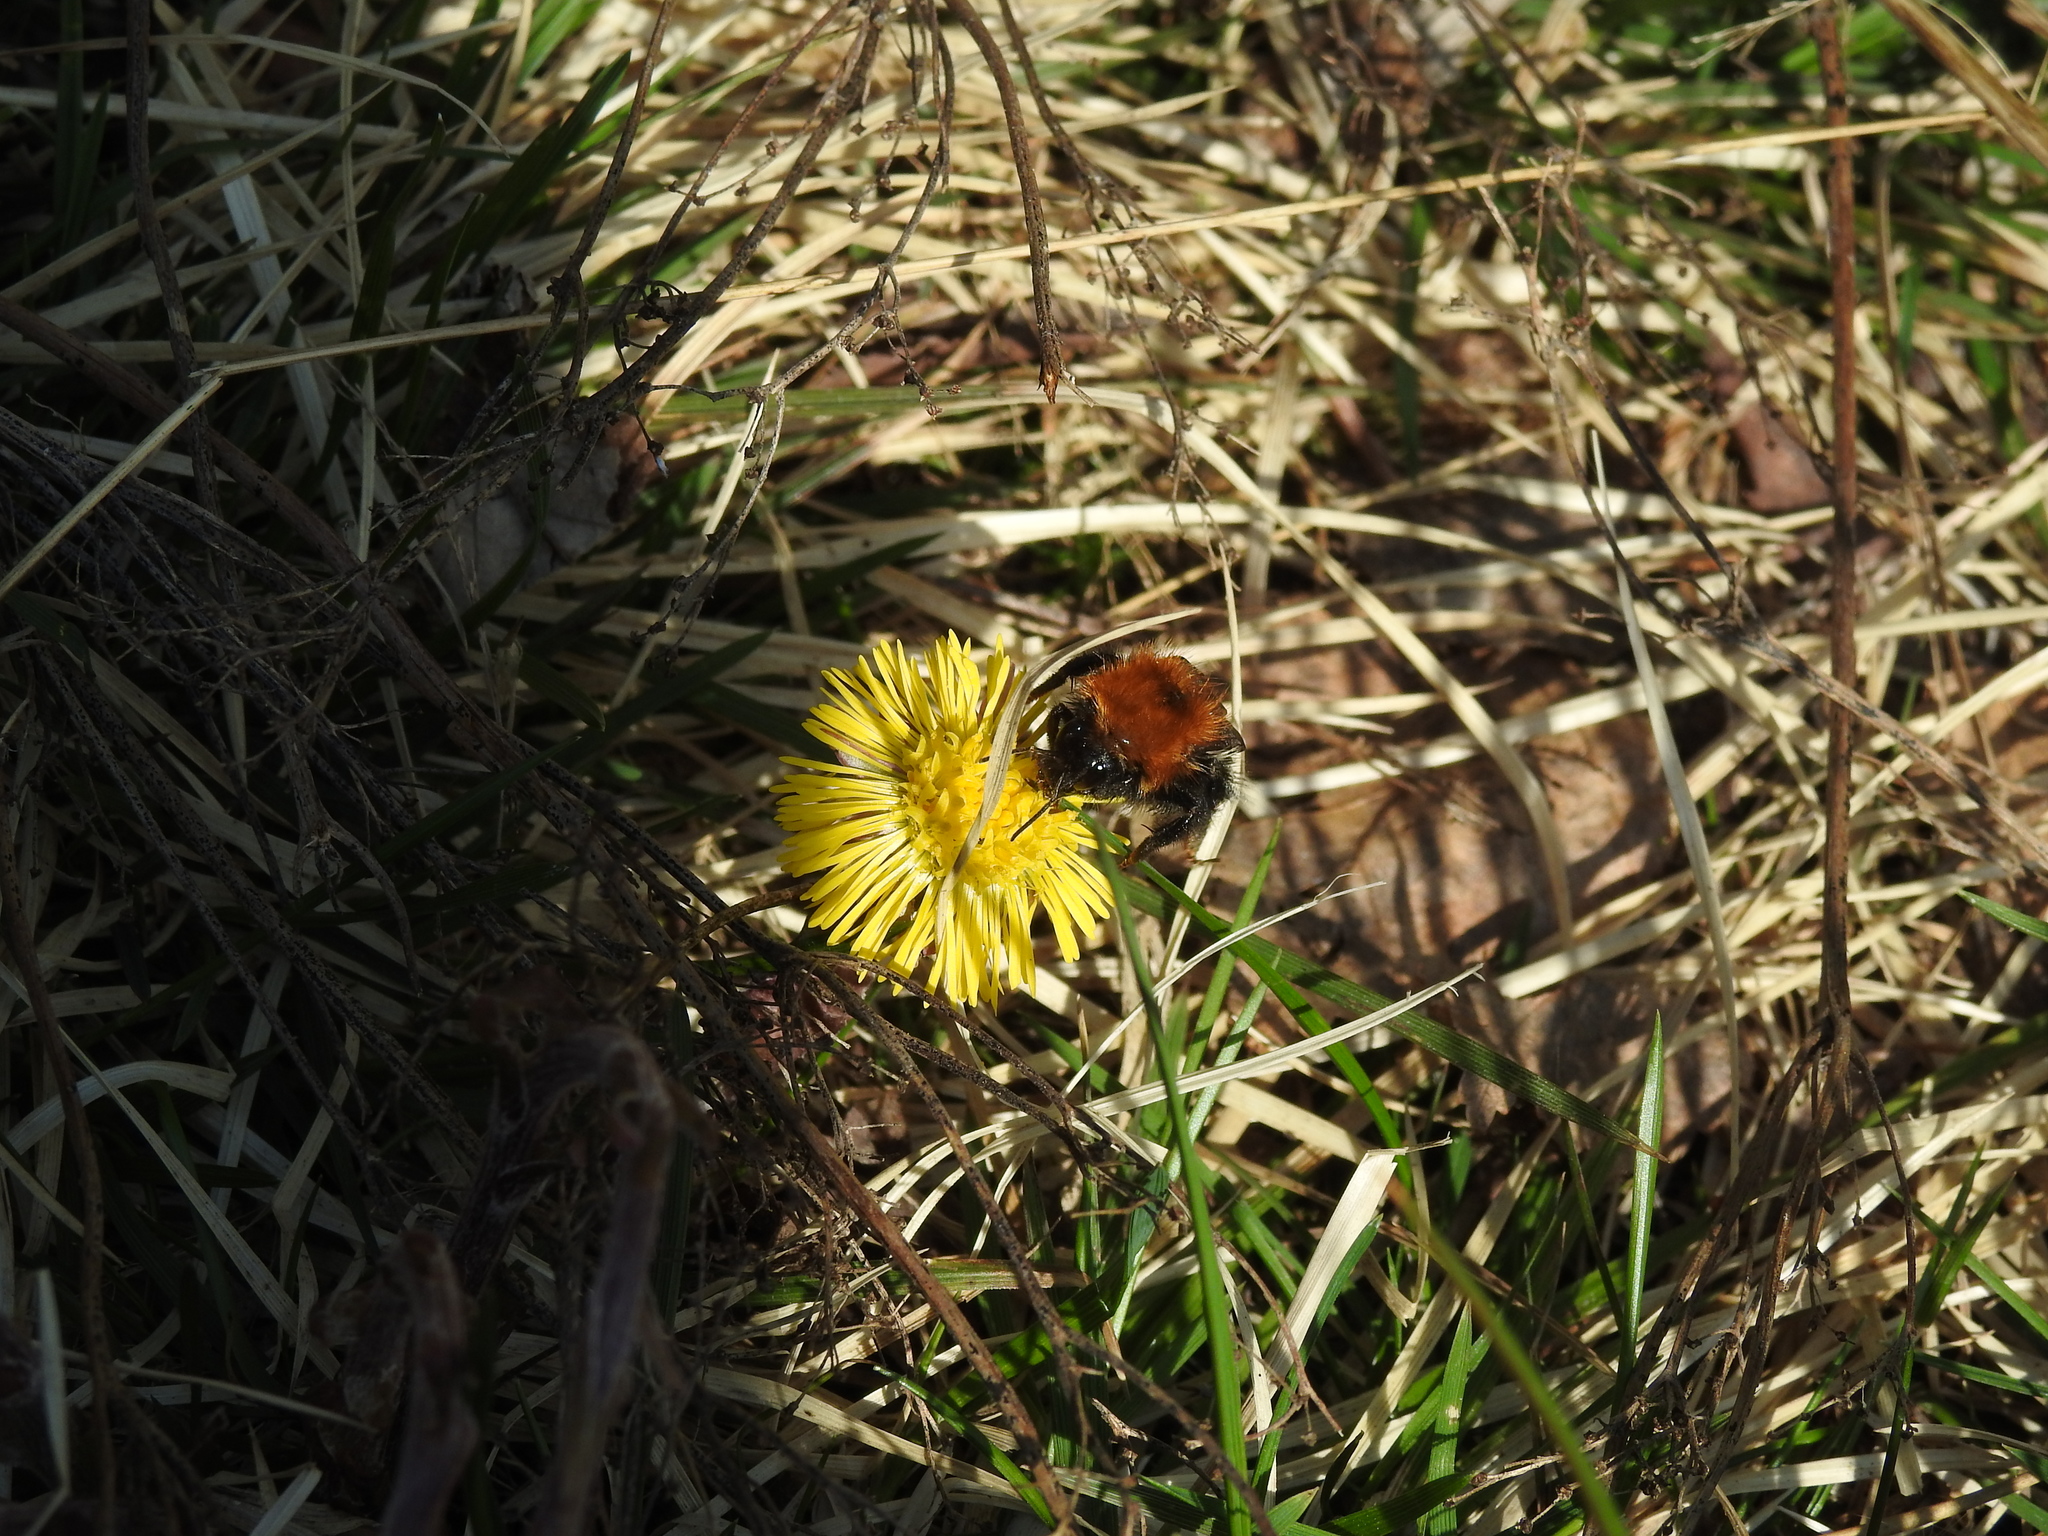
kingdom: Animalia
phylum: Arthropoda
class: Insecta
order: Hymenoptera
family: Apidae
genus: Bombus
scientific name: Bombus
